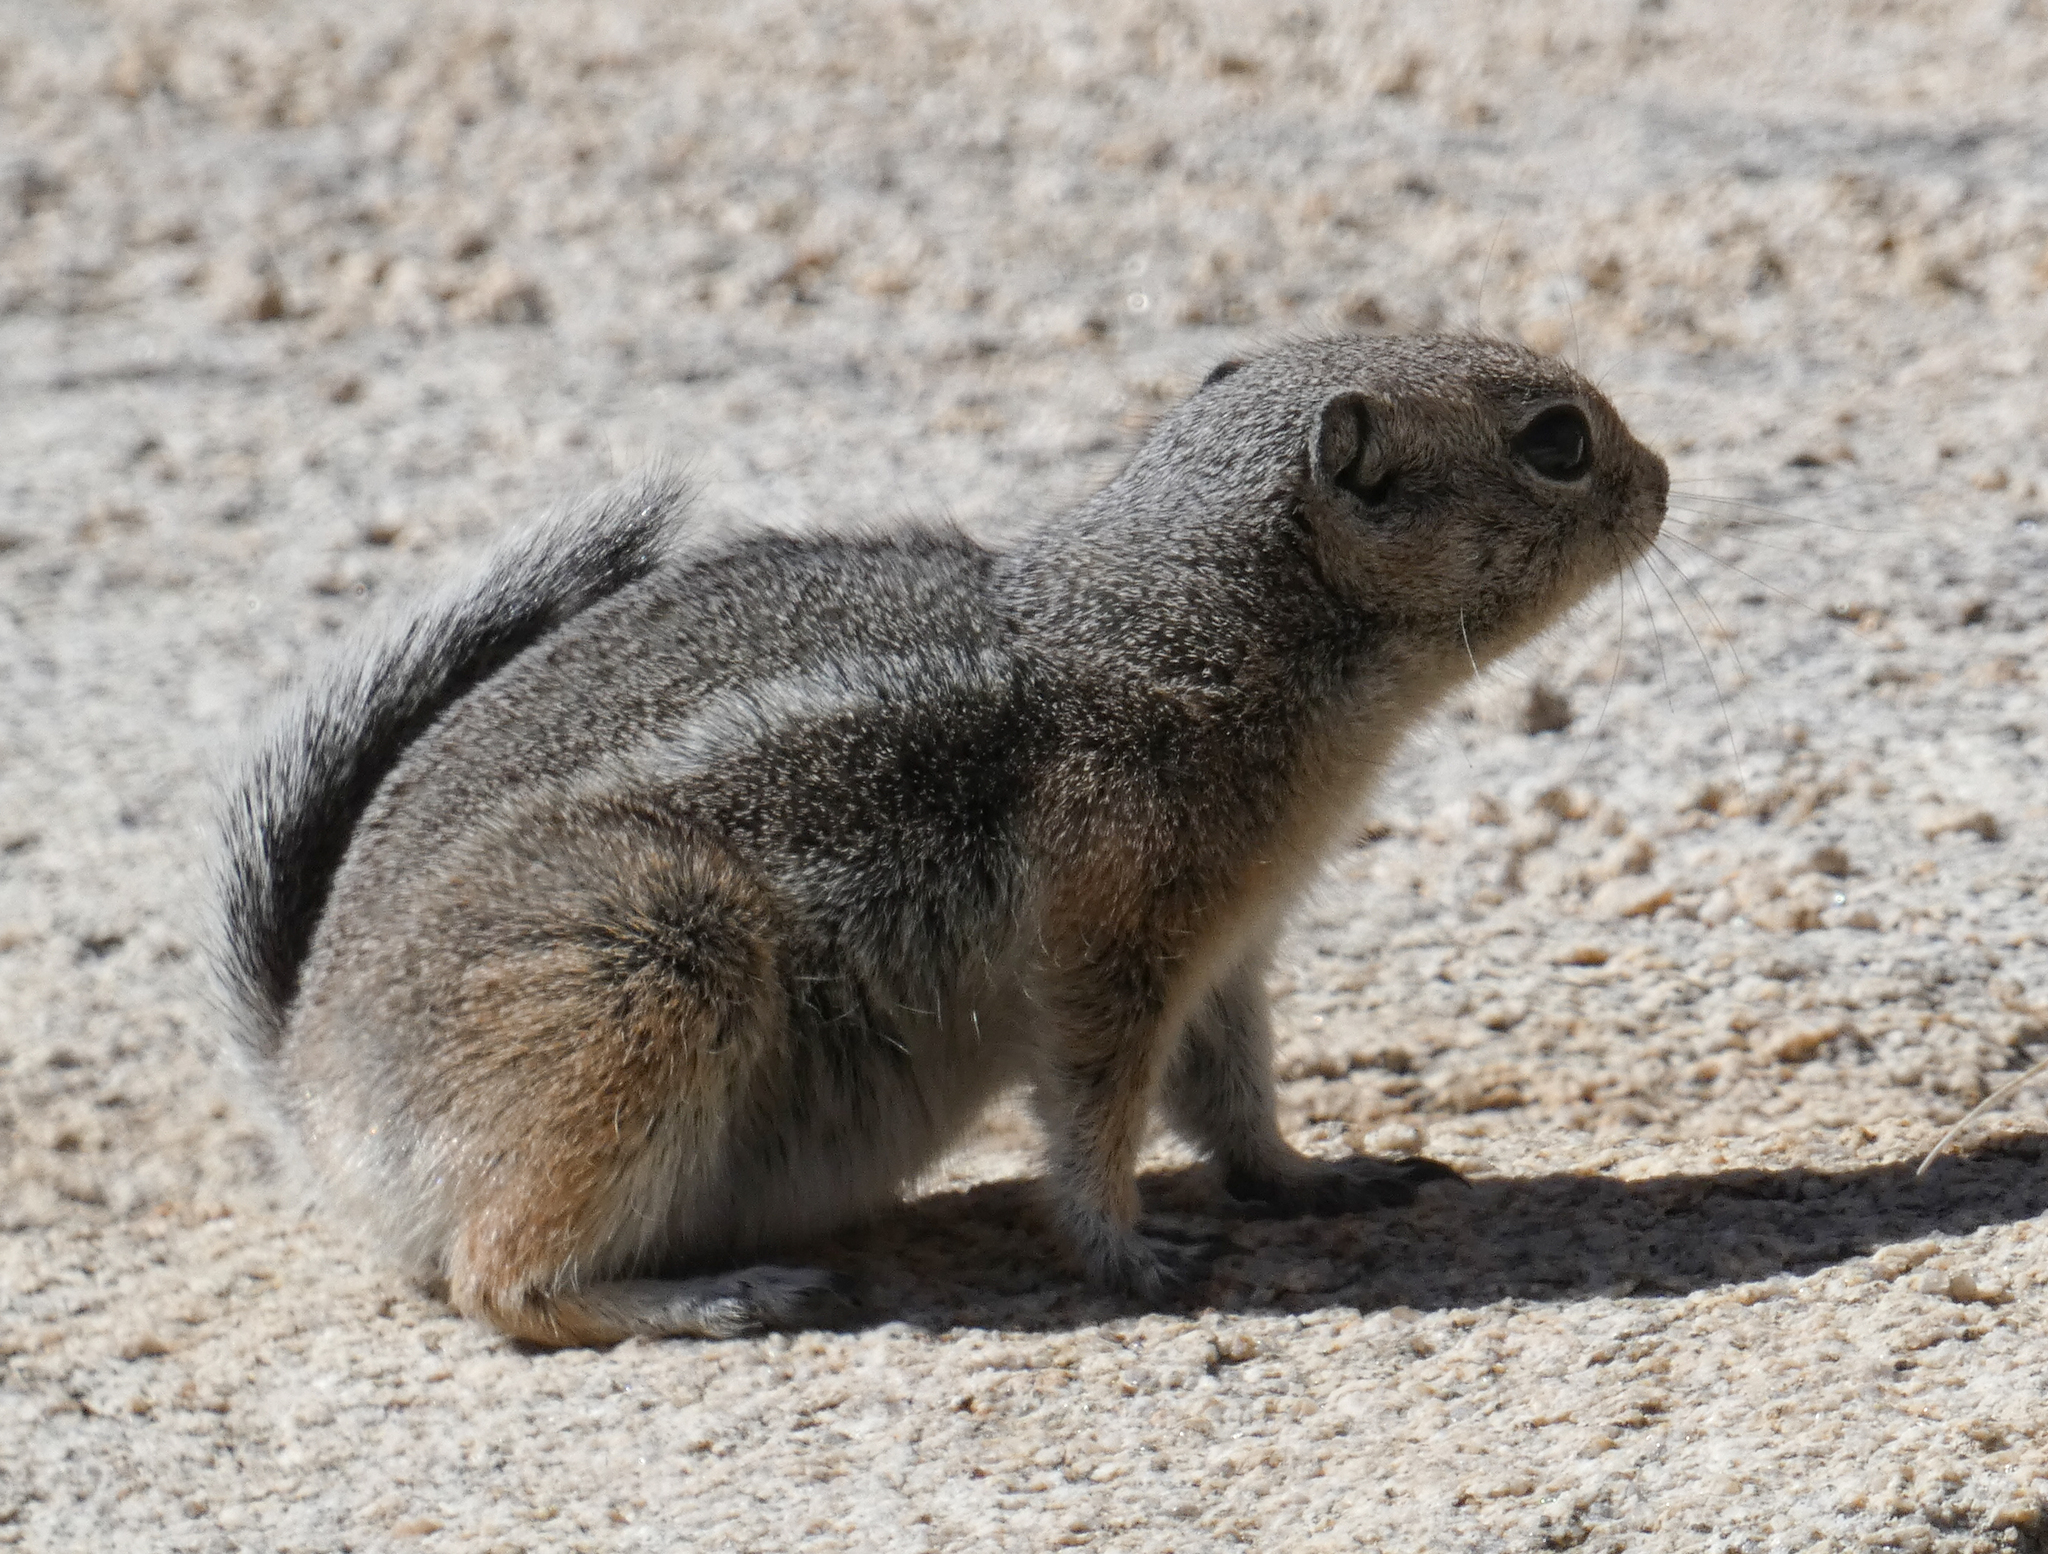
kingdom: Animalia
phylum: Chordata
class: Mammalia
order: Rodentia
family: Sciuridae
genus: Ammospermophilus
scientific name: Ammospermophilus leucurus
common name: White-tailed antelope squirrel
